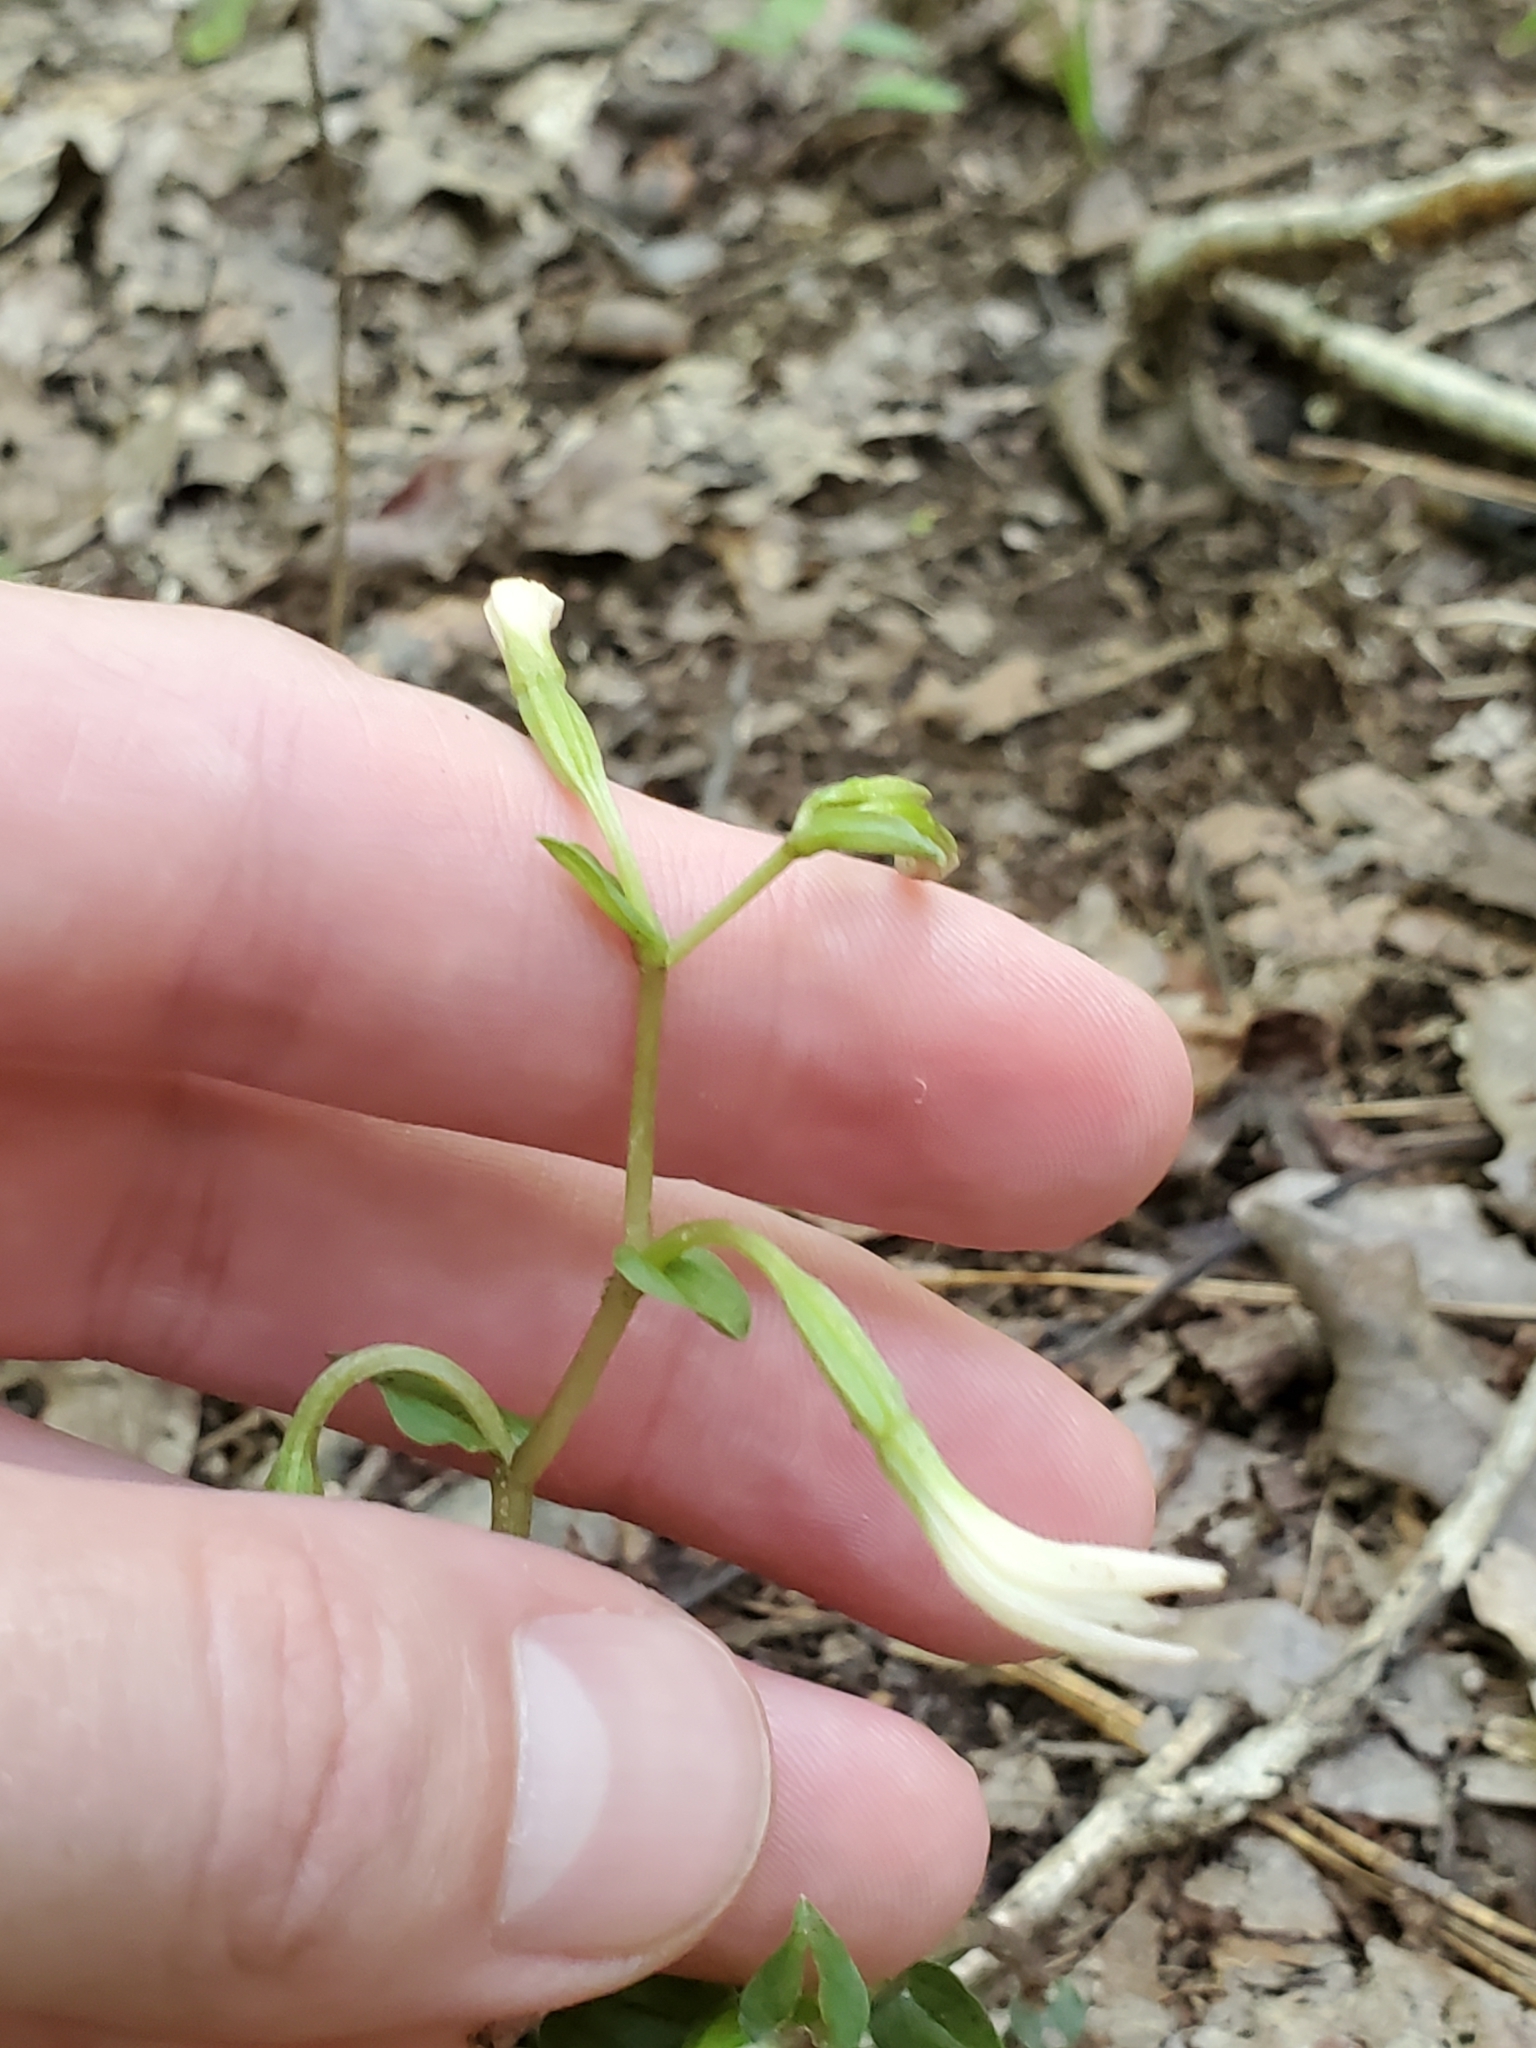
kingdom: Plantae
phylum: Tracheophyta
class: Liliopsida
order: Asparagales
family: Orchidaceae
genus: Triphora
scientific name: Triphora trianthophoros
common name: Three birds orchid
